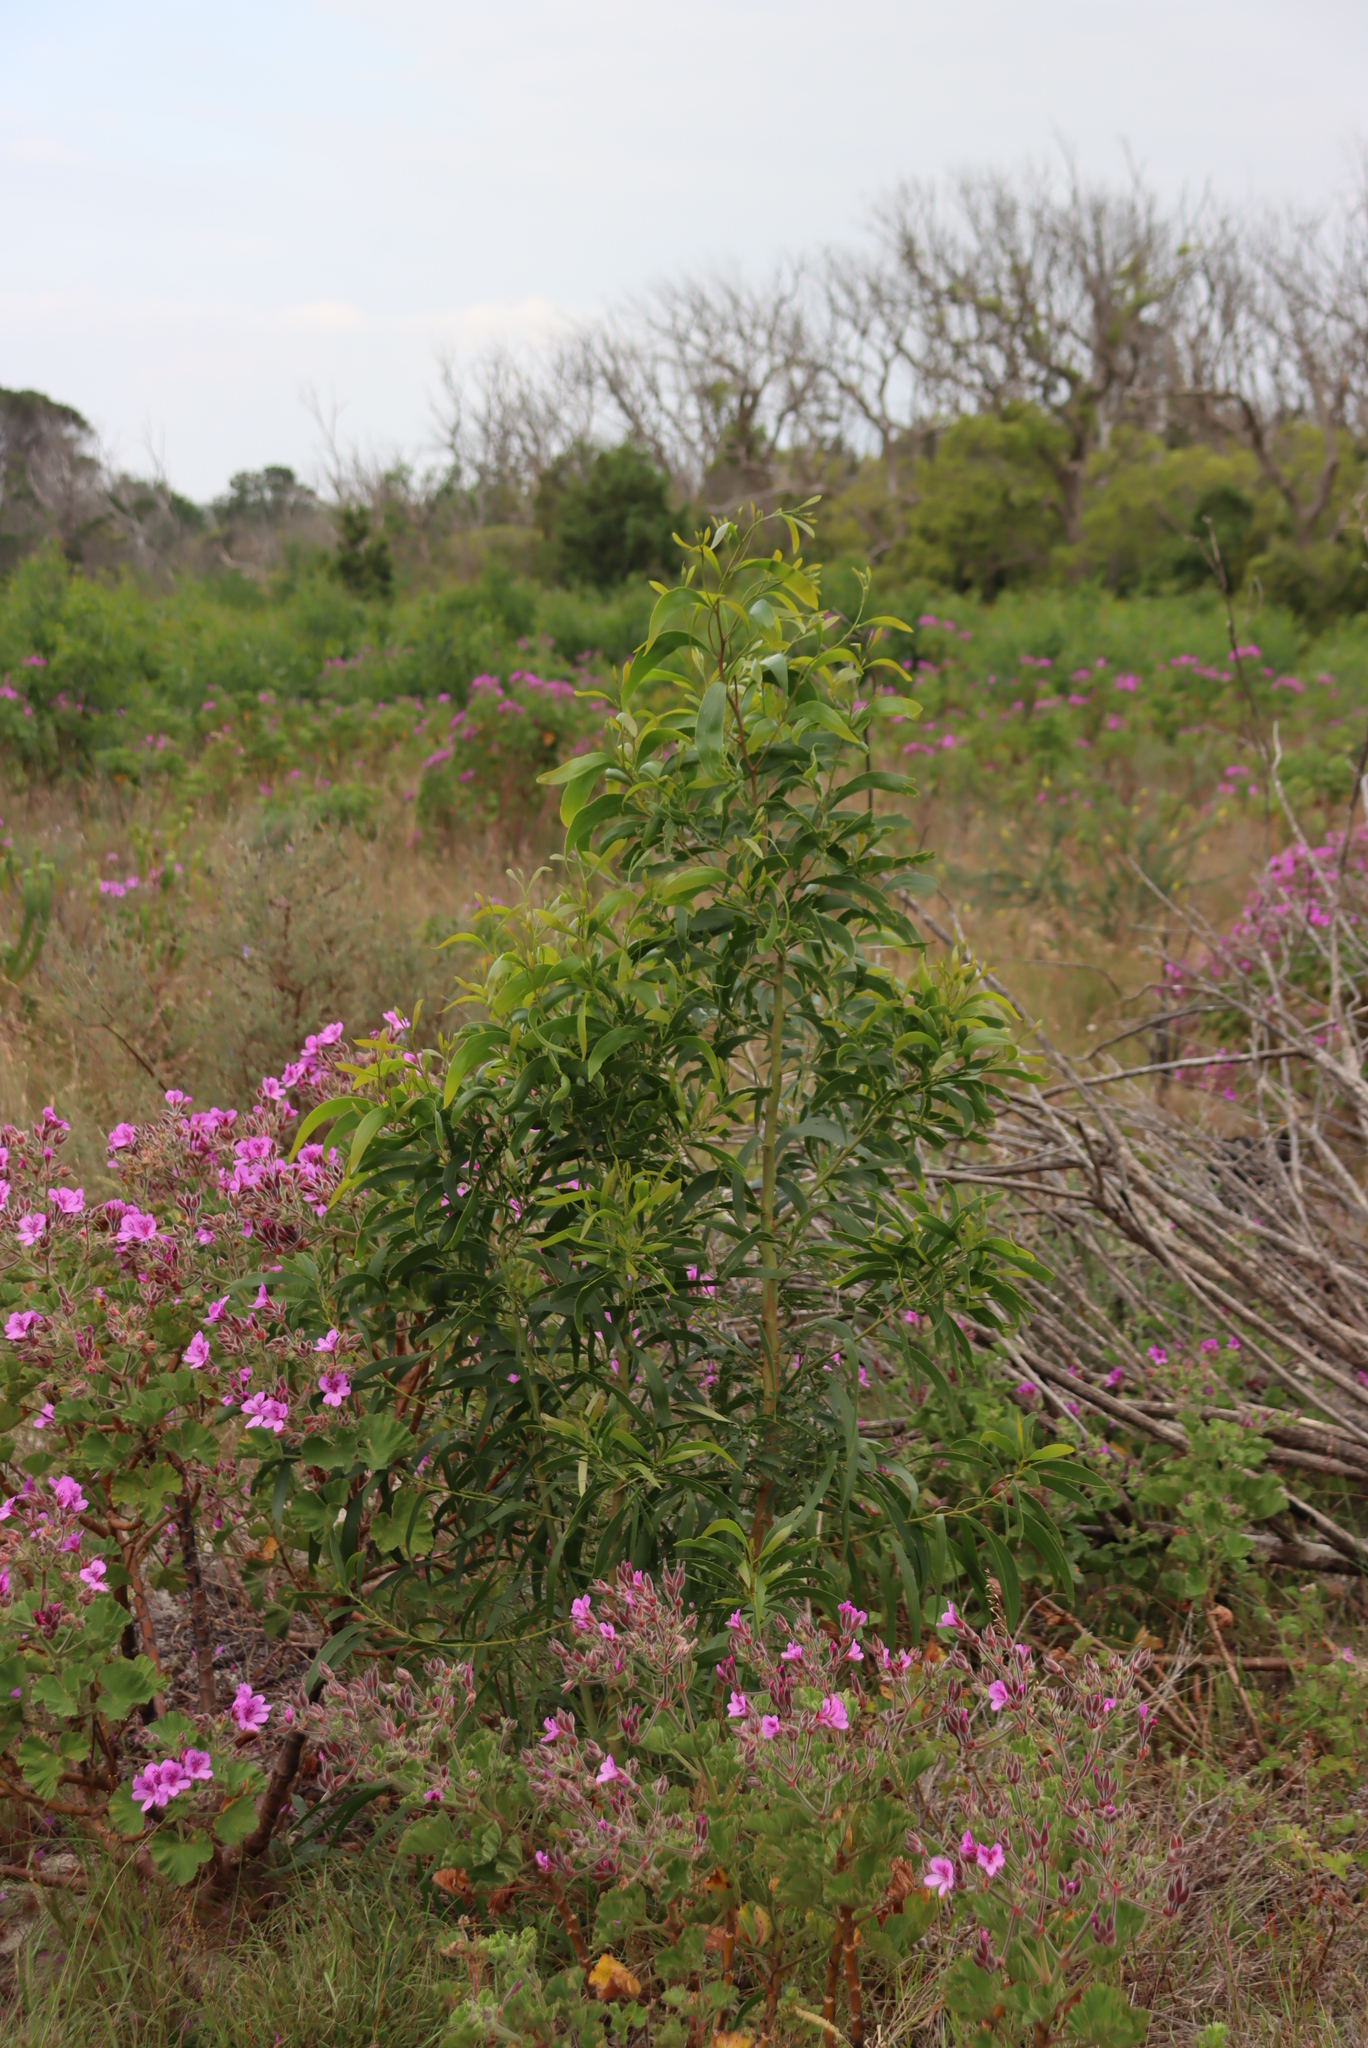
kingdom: Plantae
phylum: Tracheophyta
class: Magnoliopsida
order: Fabales
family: Fabaceae
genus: Acacia
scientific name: Acacia implexa
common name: Black wattle
